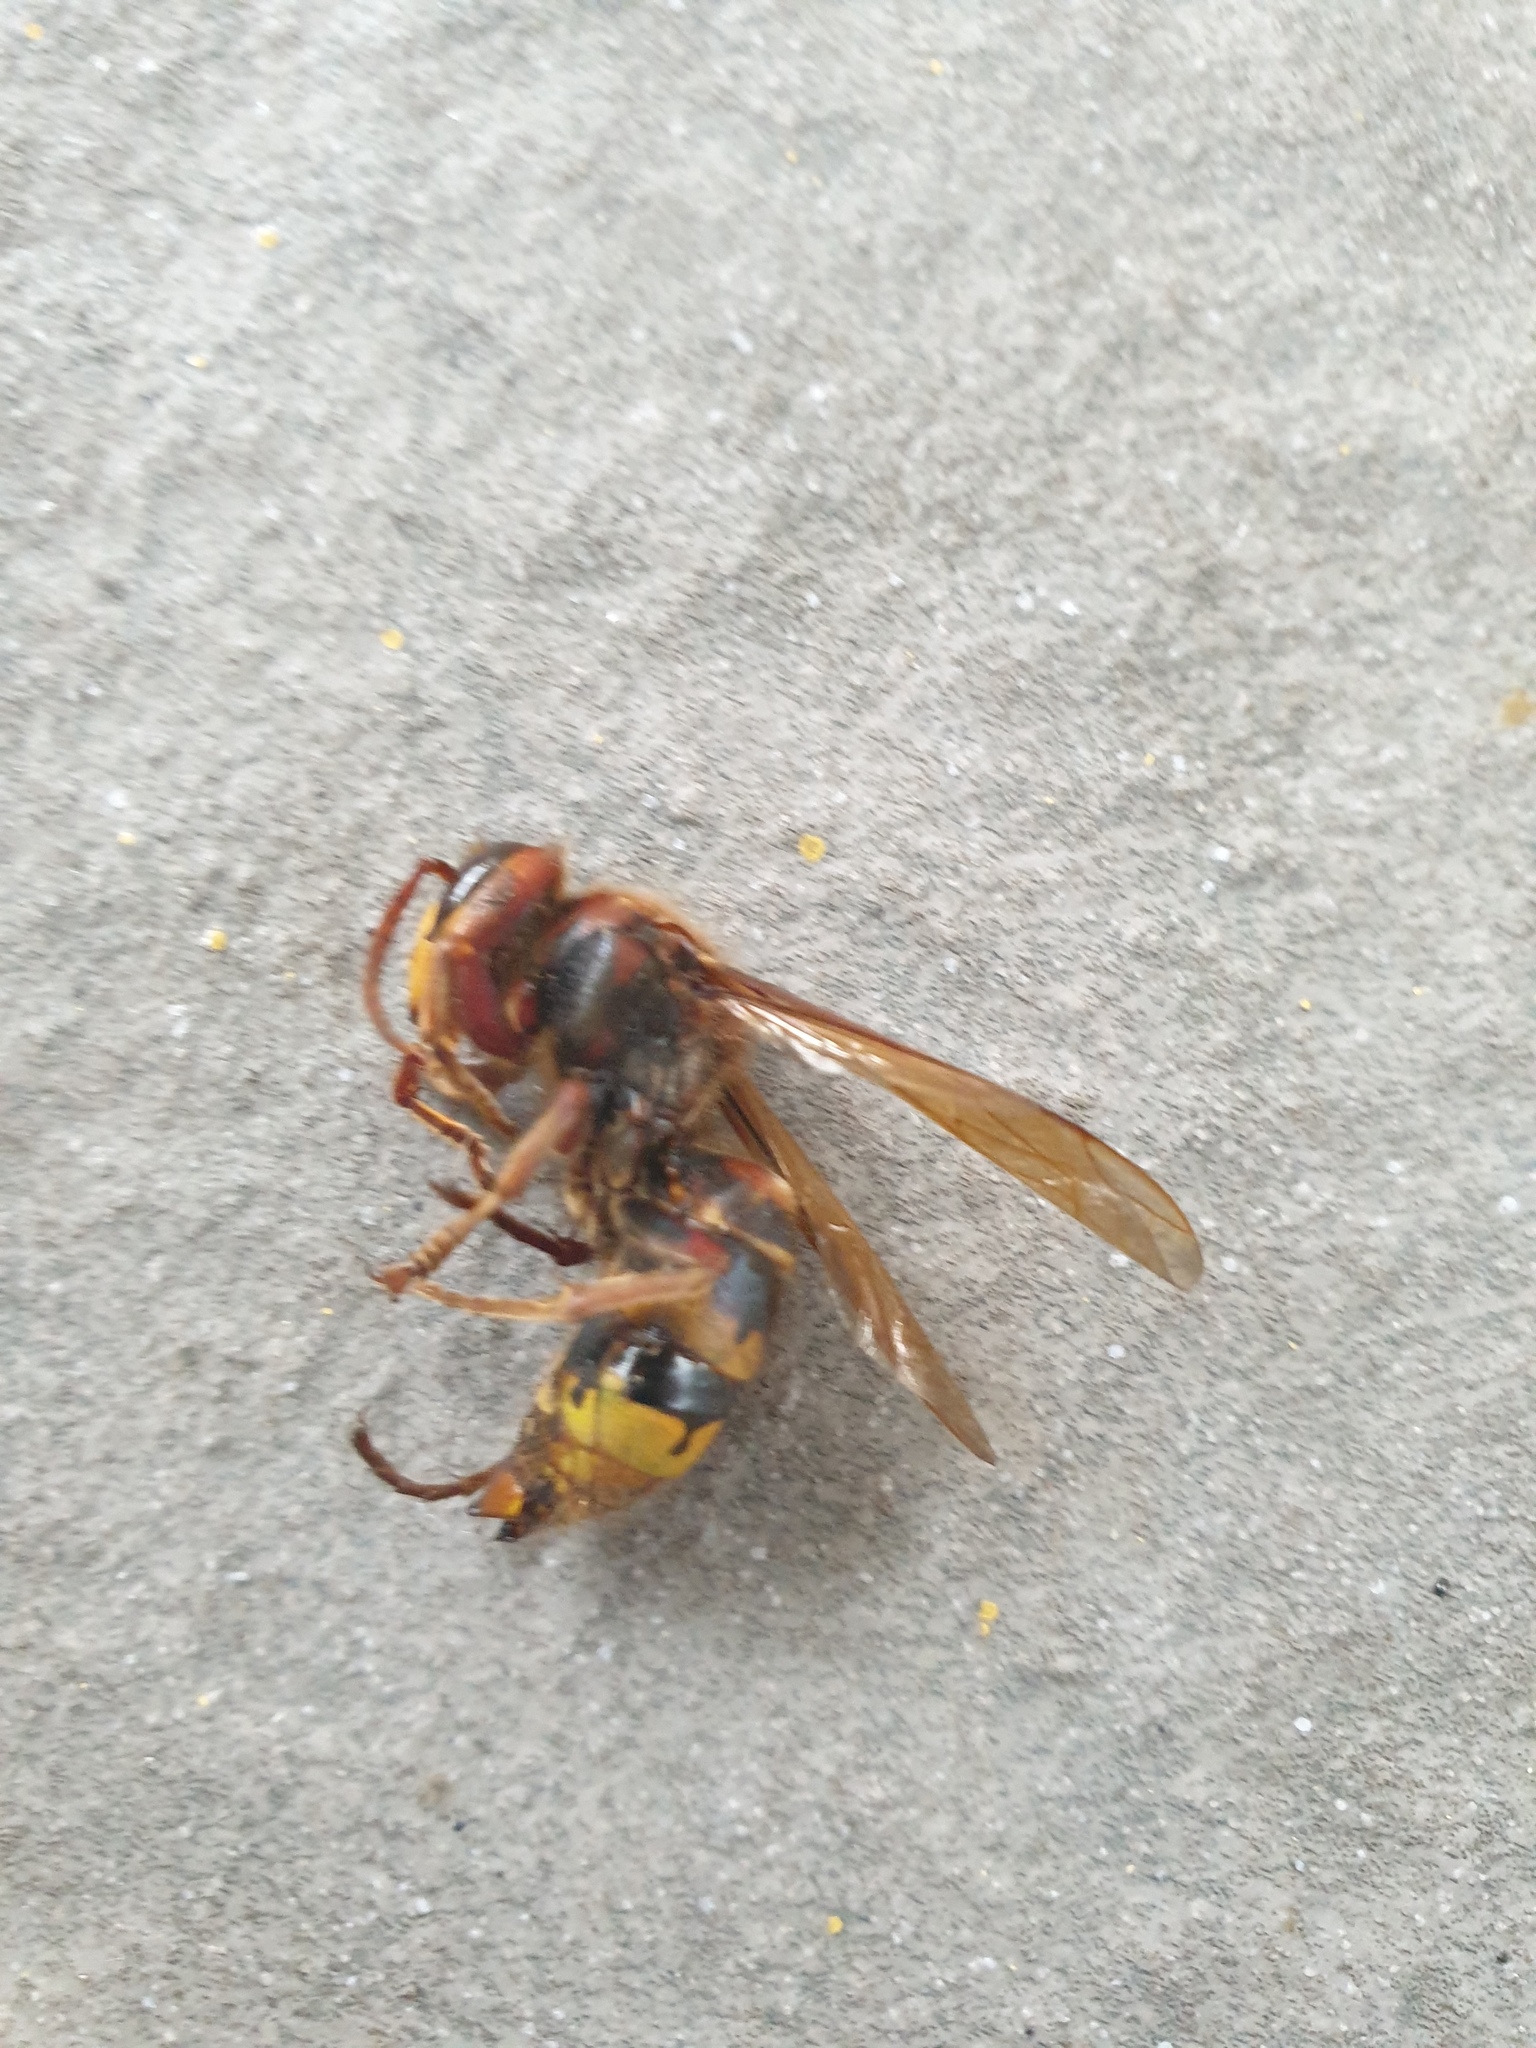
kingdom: Animalia
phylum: Arthropoda
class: Insecta
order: Hymenoptera
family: Vespidae
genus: Vespa
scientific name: Vespa crabro
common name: Hornet
